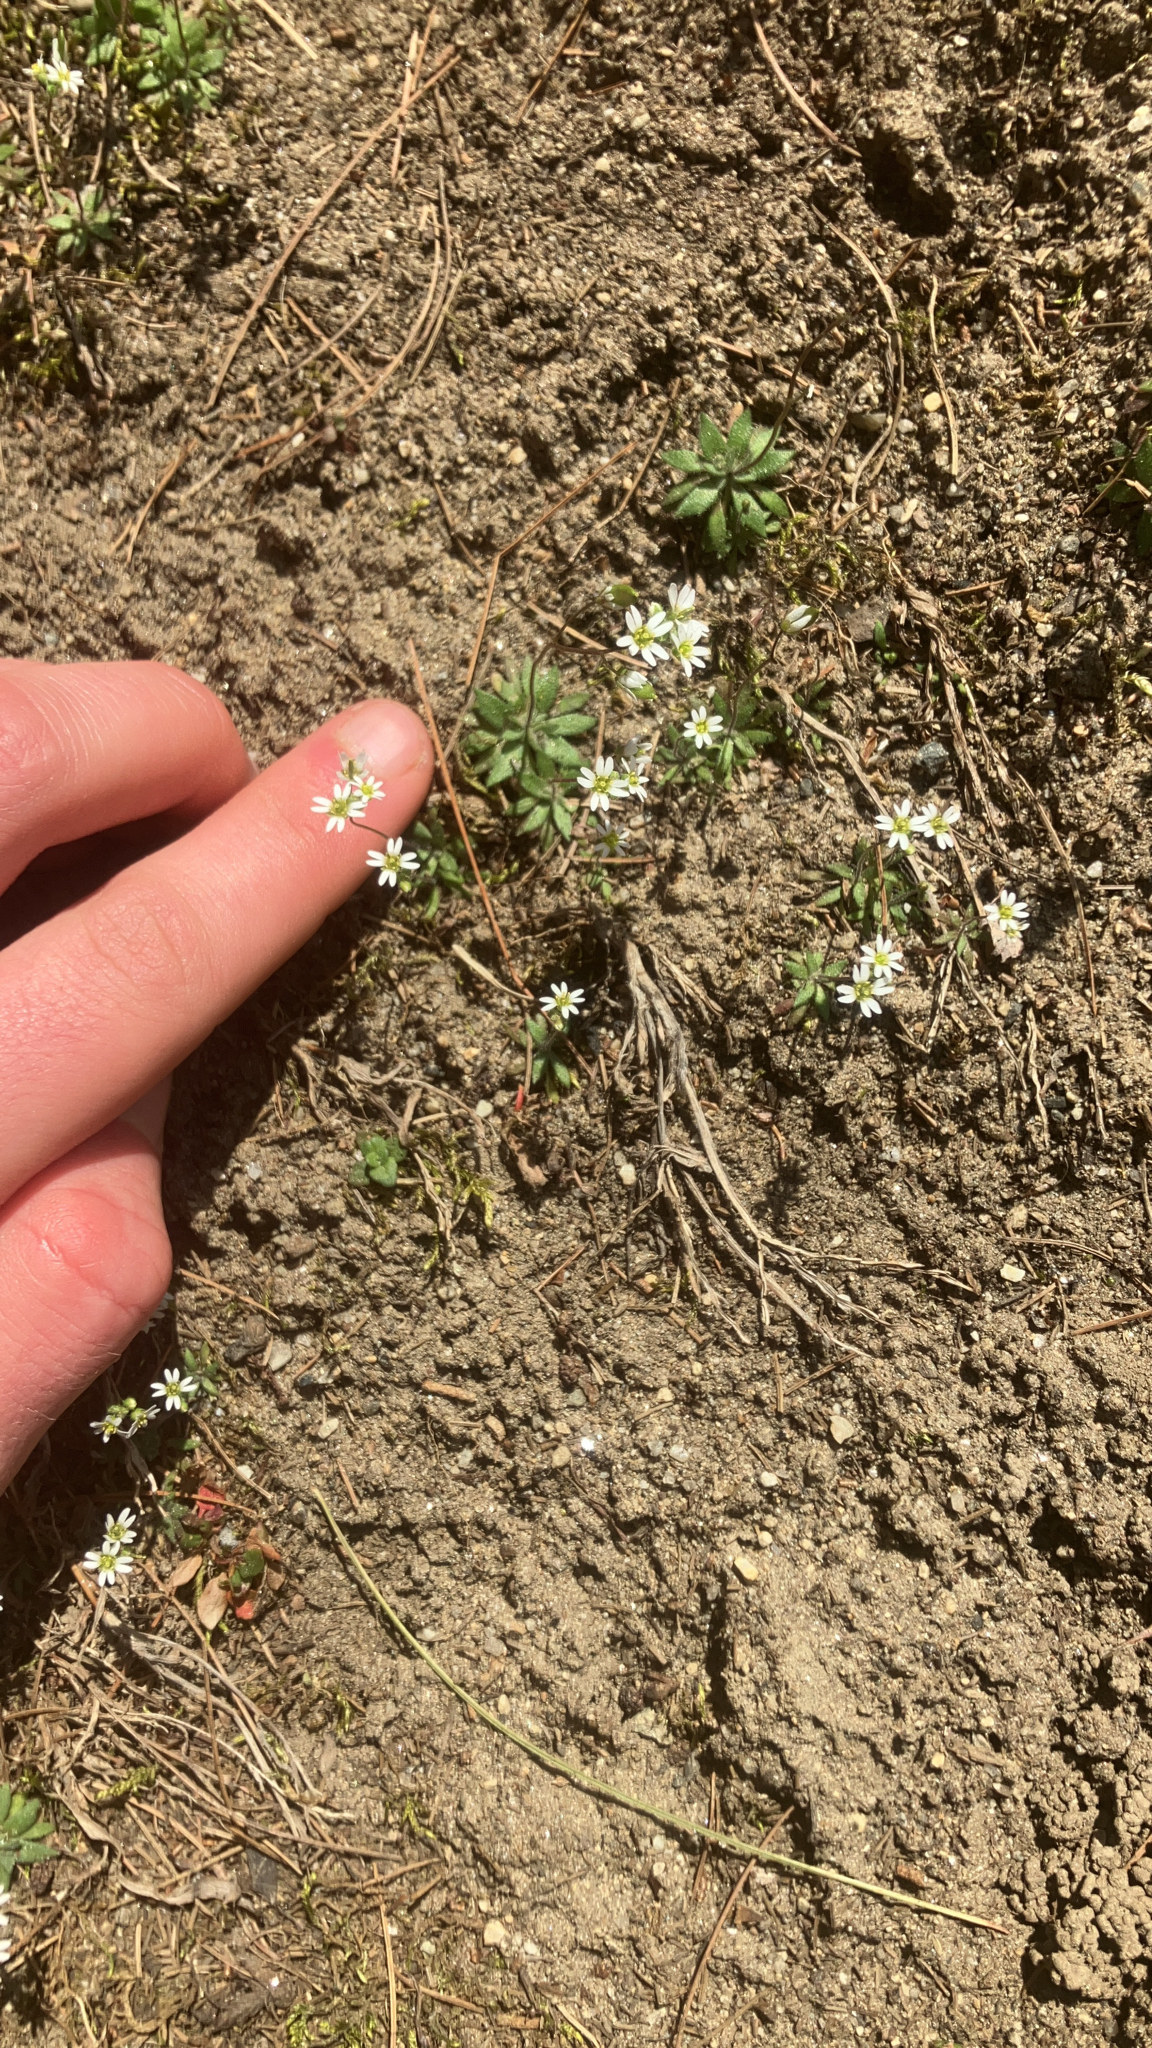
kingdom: Plantae
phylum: Tracheophyta
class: Magnoliopsida
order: Brassicales
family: Brassicaceae
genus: Draba
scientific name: Draba verna
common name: Spring draba
